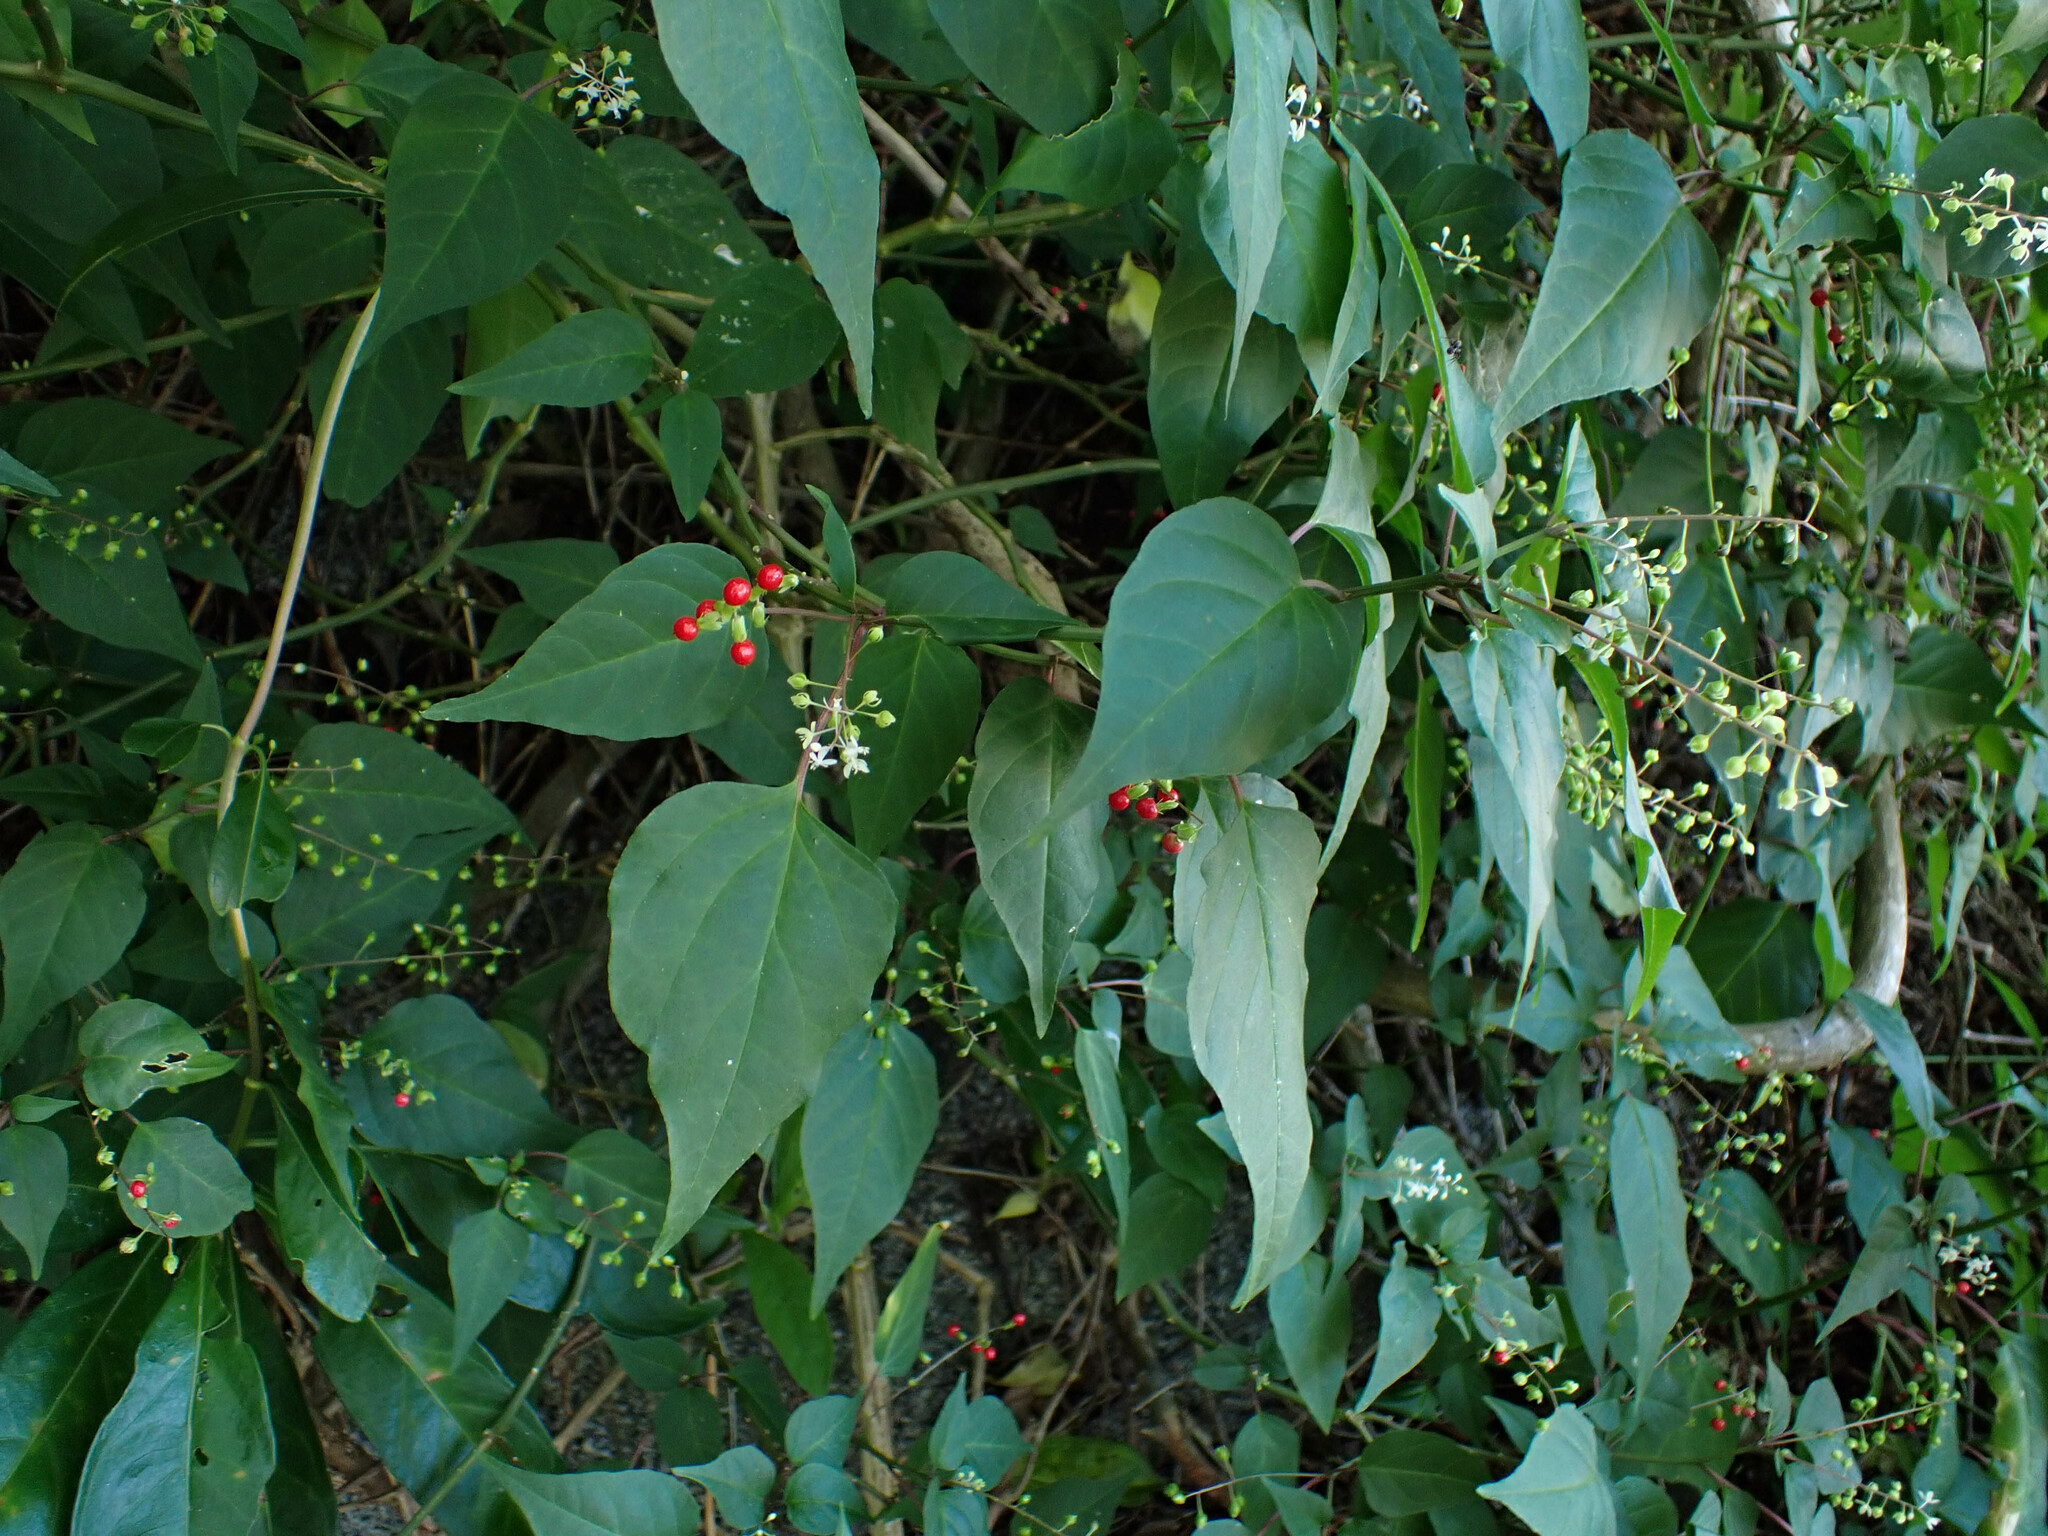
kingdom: Plantae
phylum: Tracheophyta
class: Magnoliopsida
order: Caryophyllales
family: Phytolaccaceae
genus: Rivina
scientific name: Rivina humilis
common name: Rougeplant
